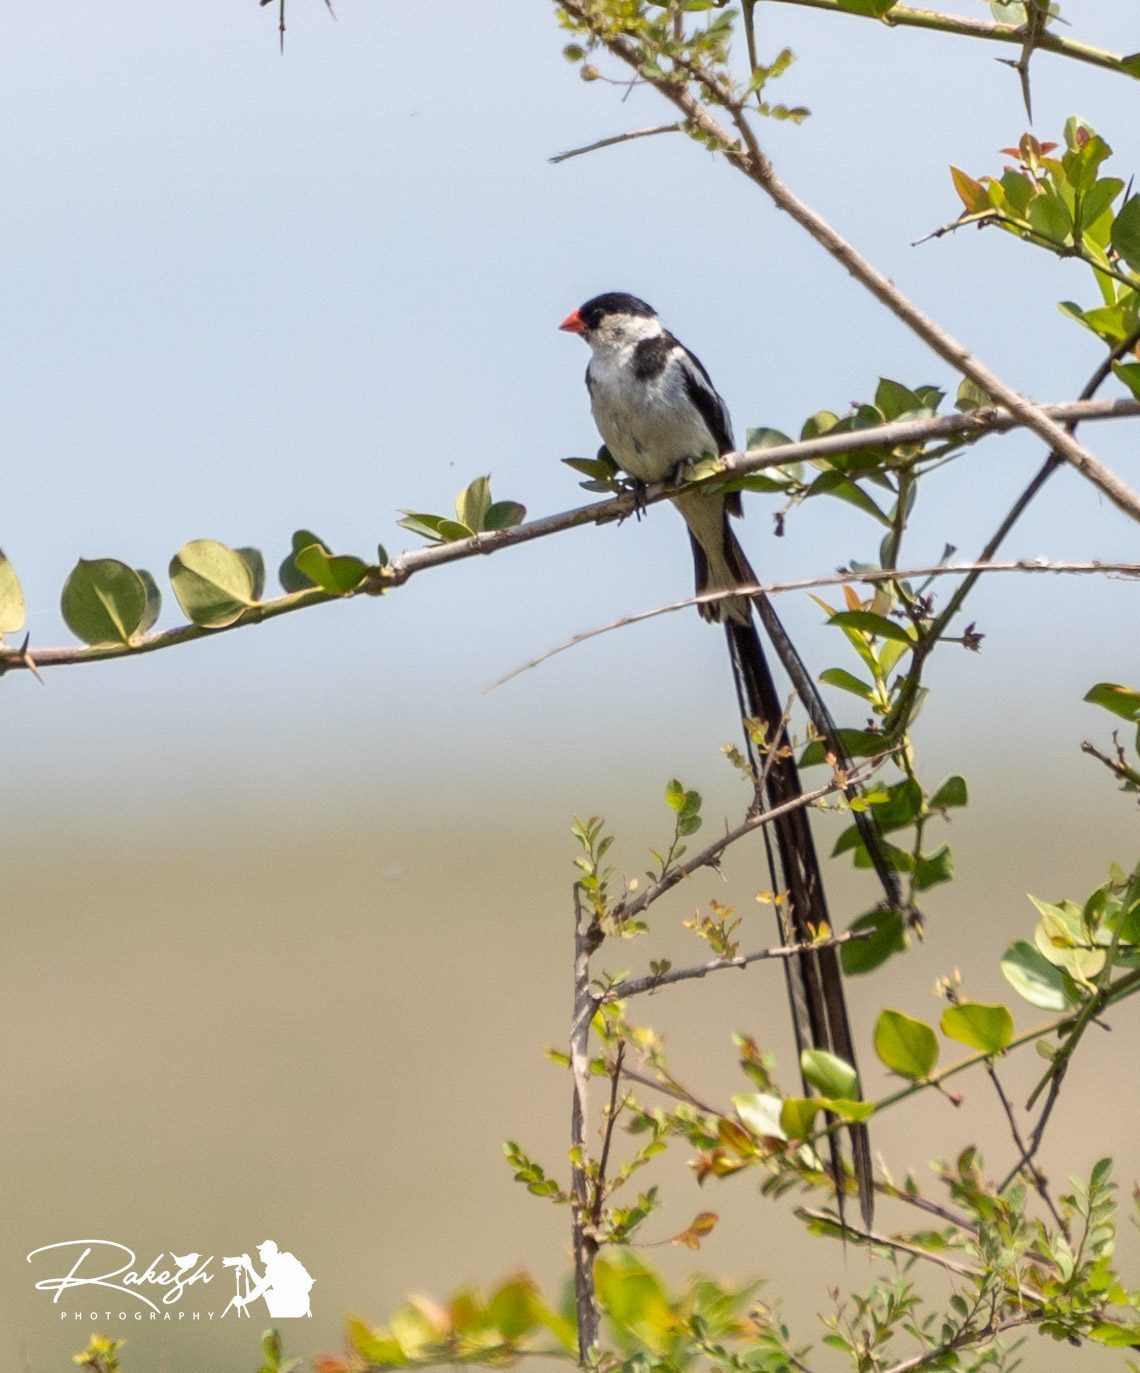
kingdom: Animalia
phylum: Chordata
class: Aves
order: Passeriformes
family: Viduidae
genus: Vidua
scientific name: Vidua macroura
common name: Pin-tailed whydah
